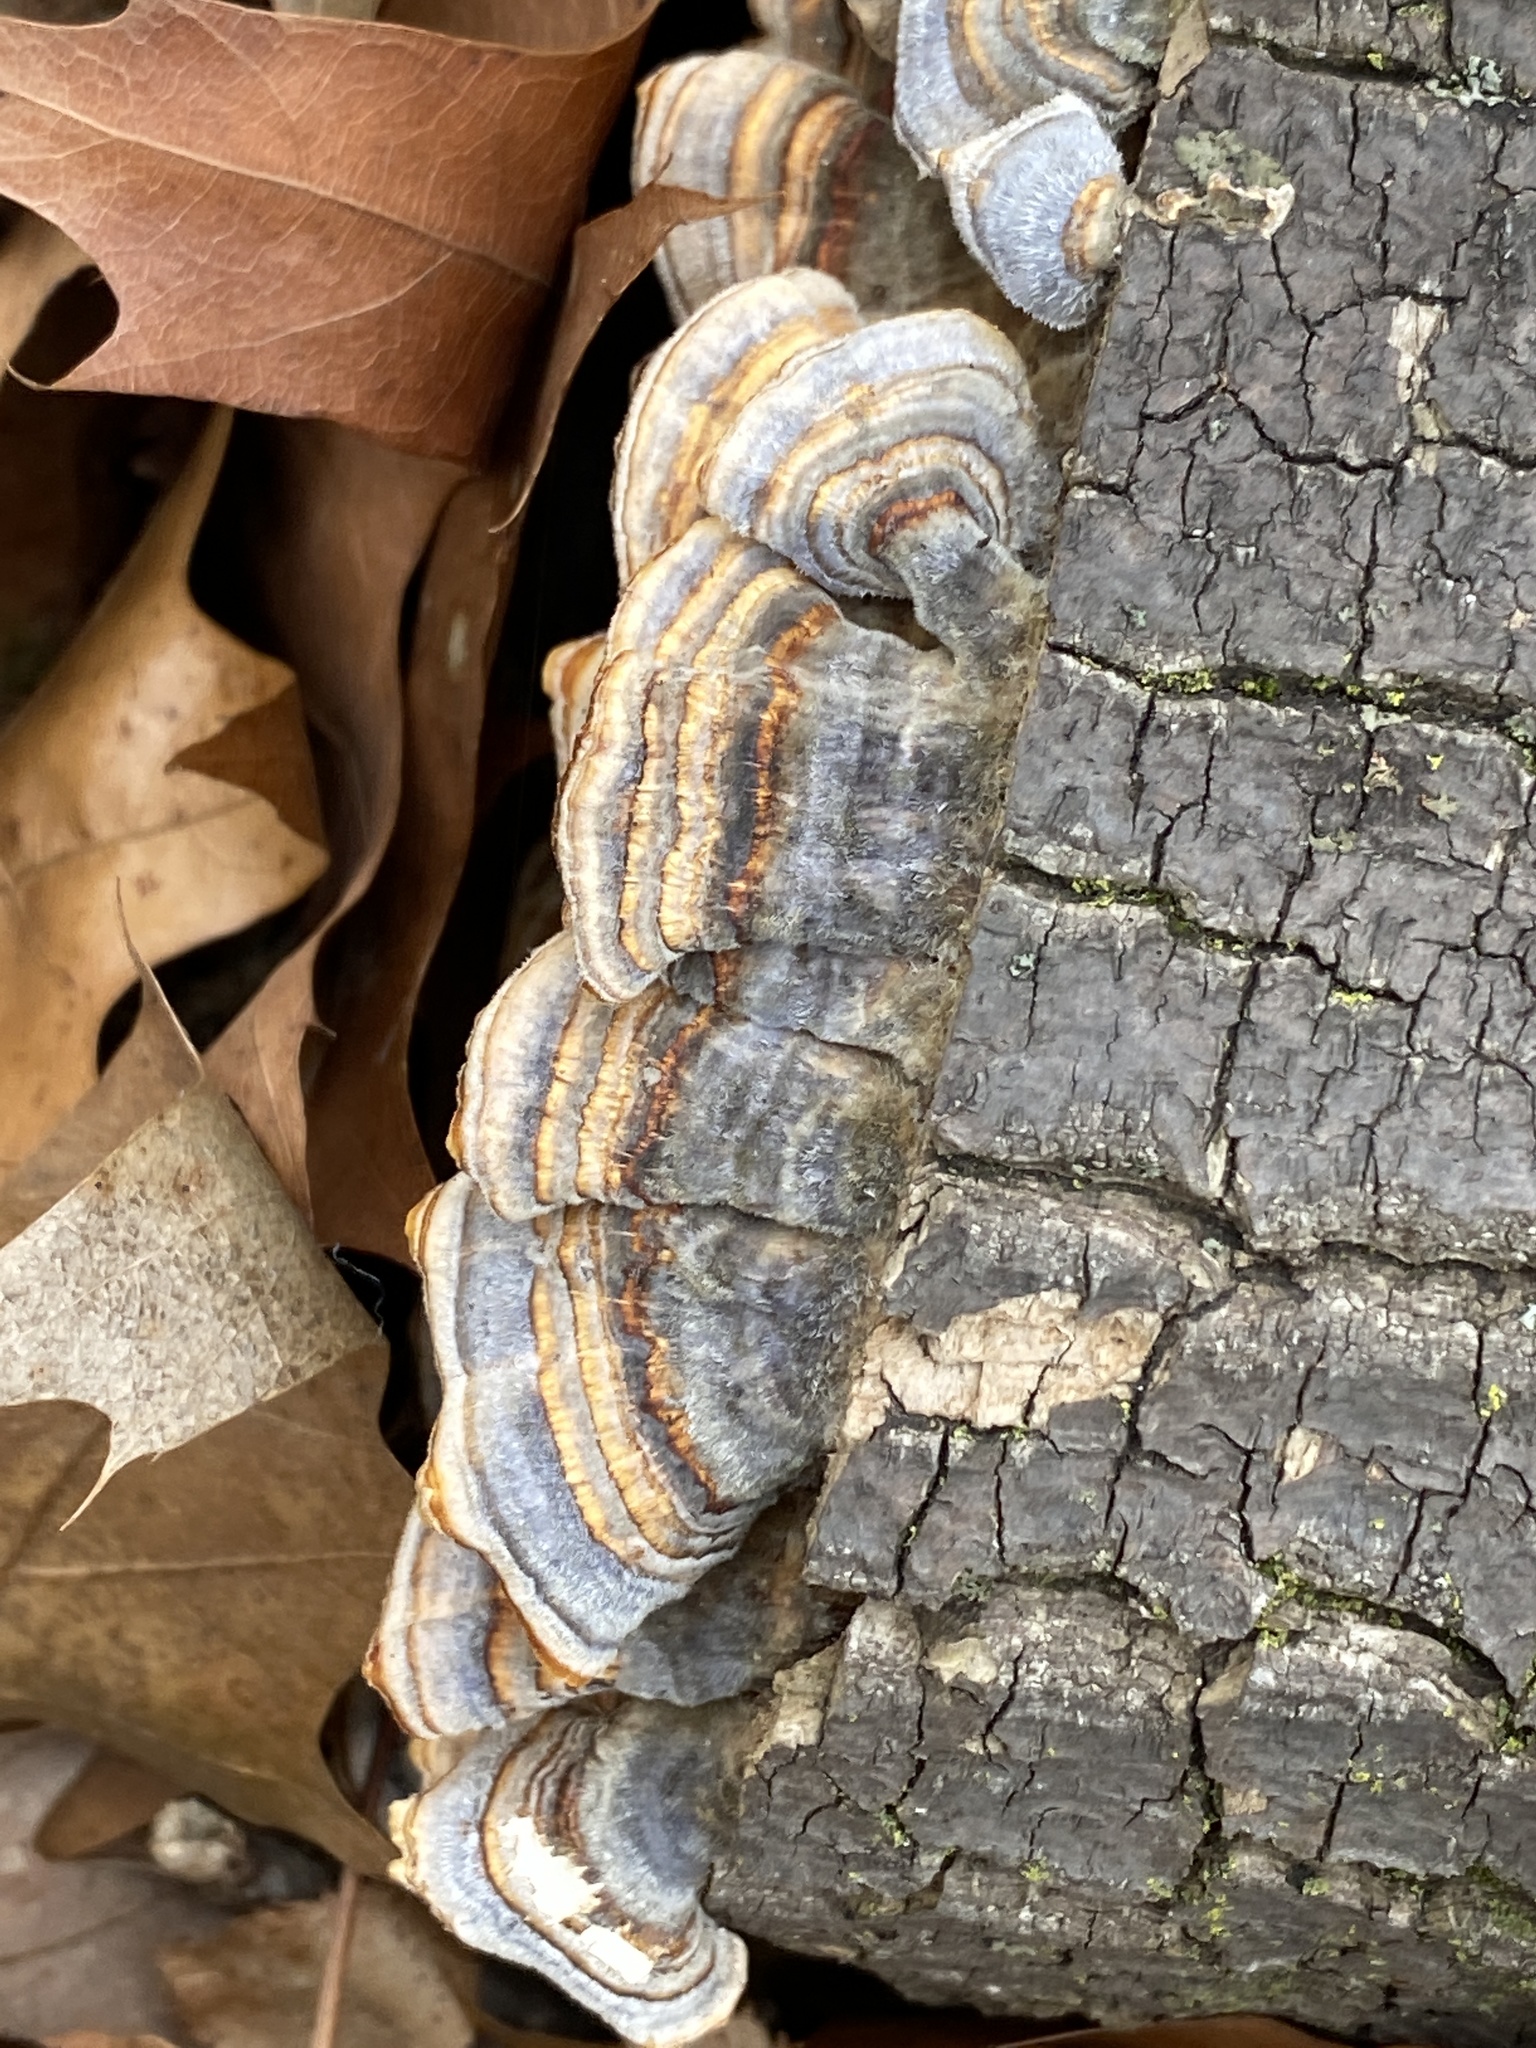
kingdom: Fungi
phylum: Basidiomycota
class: Agaricomycetes
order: Polyporales
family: Polyporaceae
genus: Trametes
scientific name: Trametes versicolor
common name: Turkeytail
